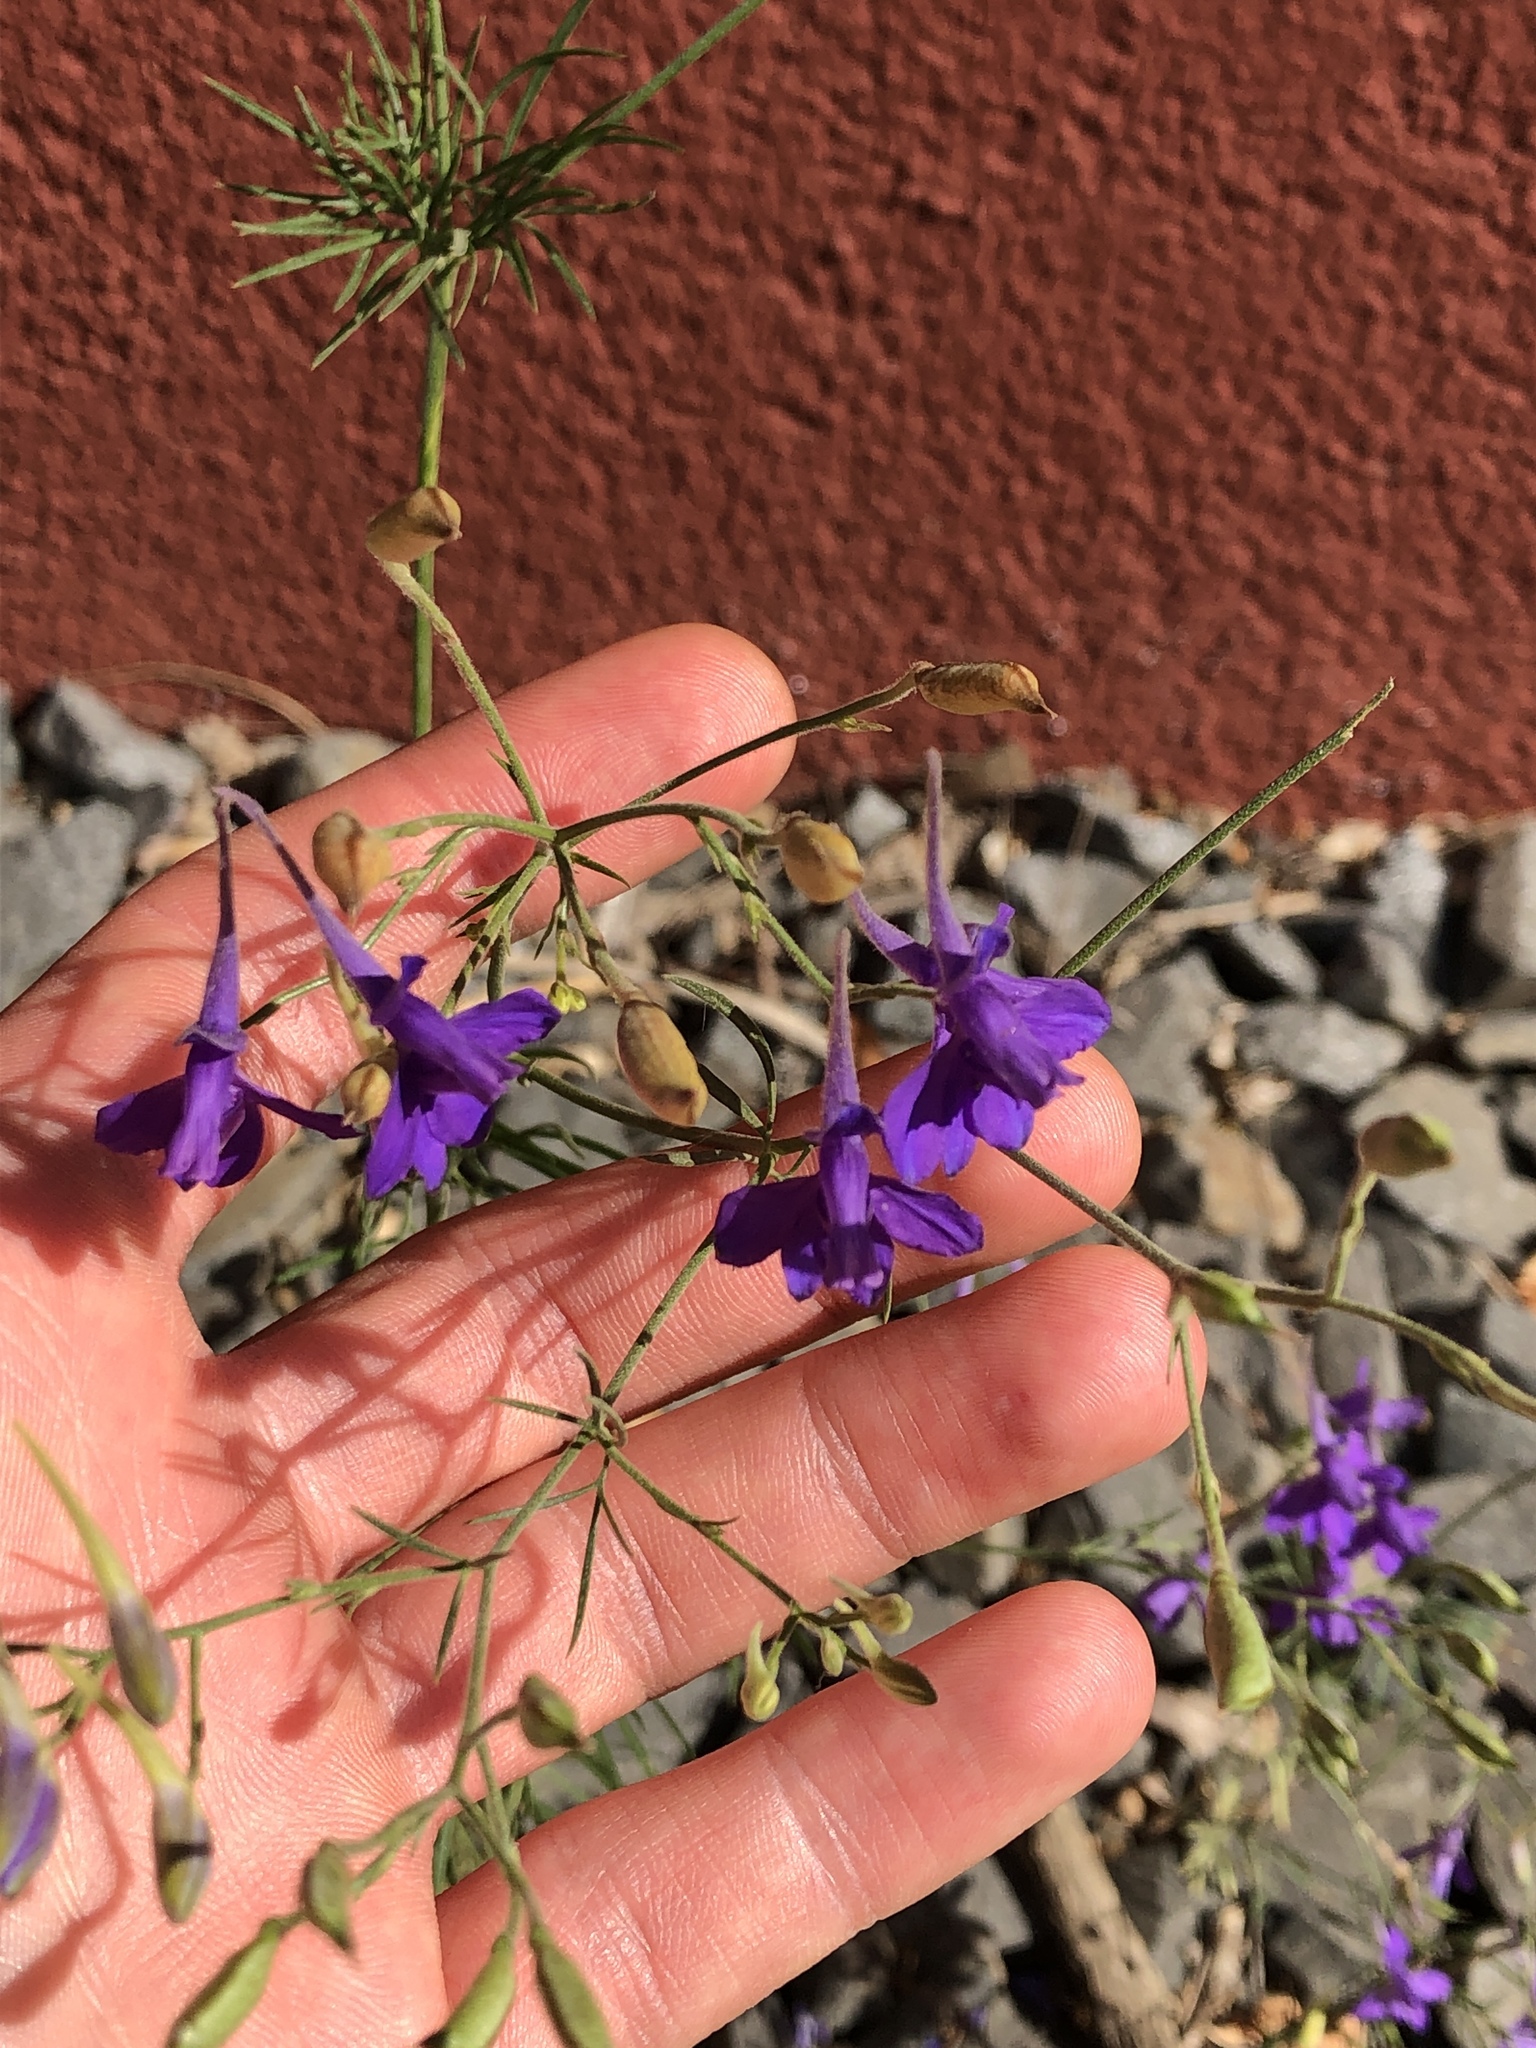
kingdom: Plantae
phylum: Tracheophyta
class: Magnoliopsida
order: Ranunculales
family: Ranunculaceae
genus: Delphinium
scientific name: Delphinium consolida
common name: Branching larkspur
